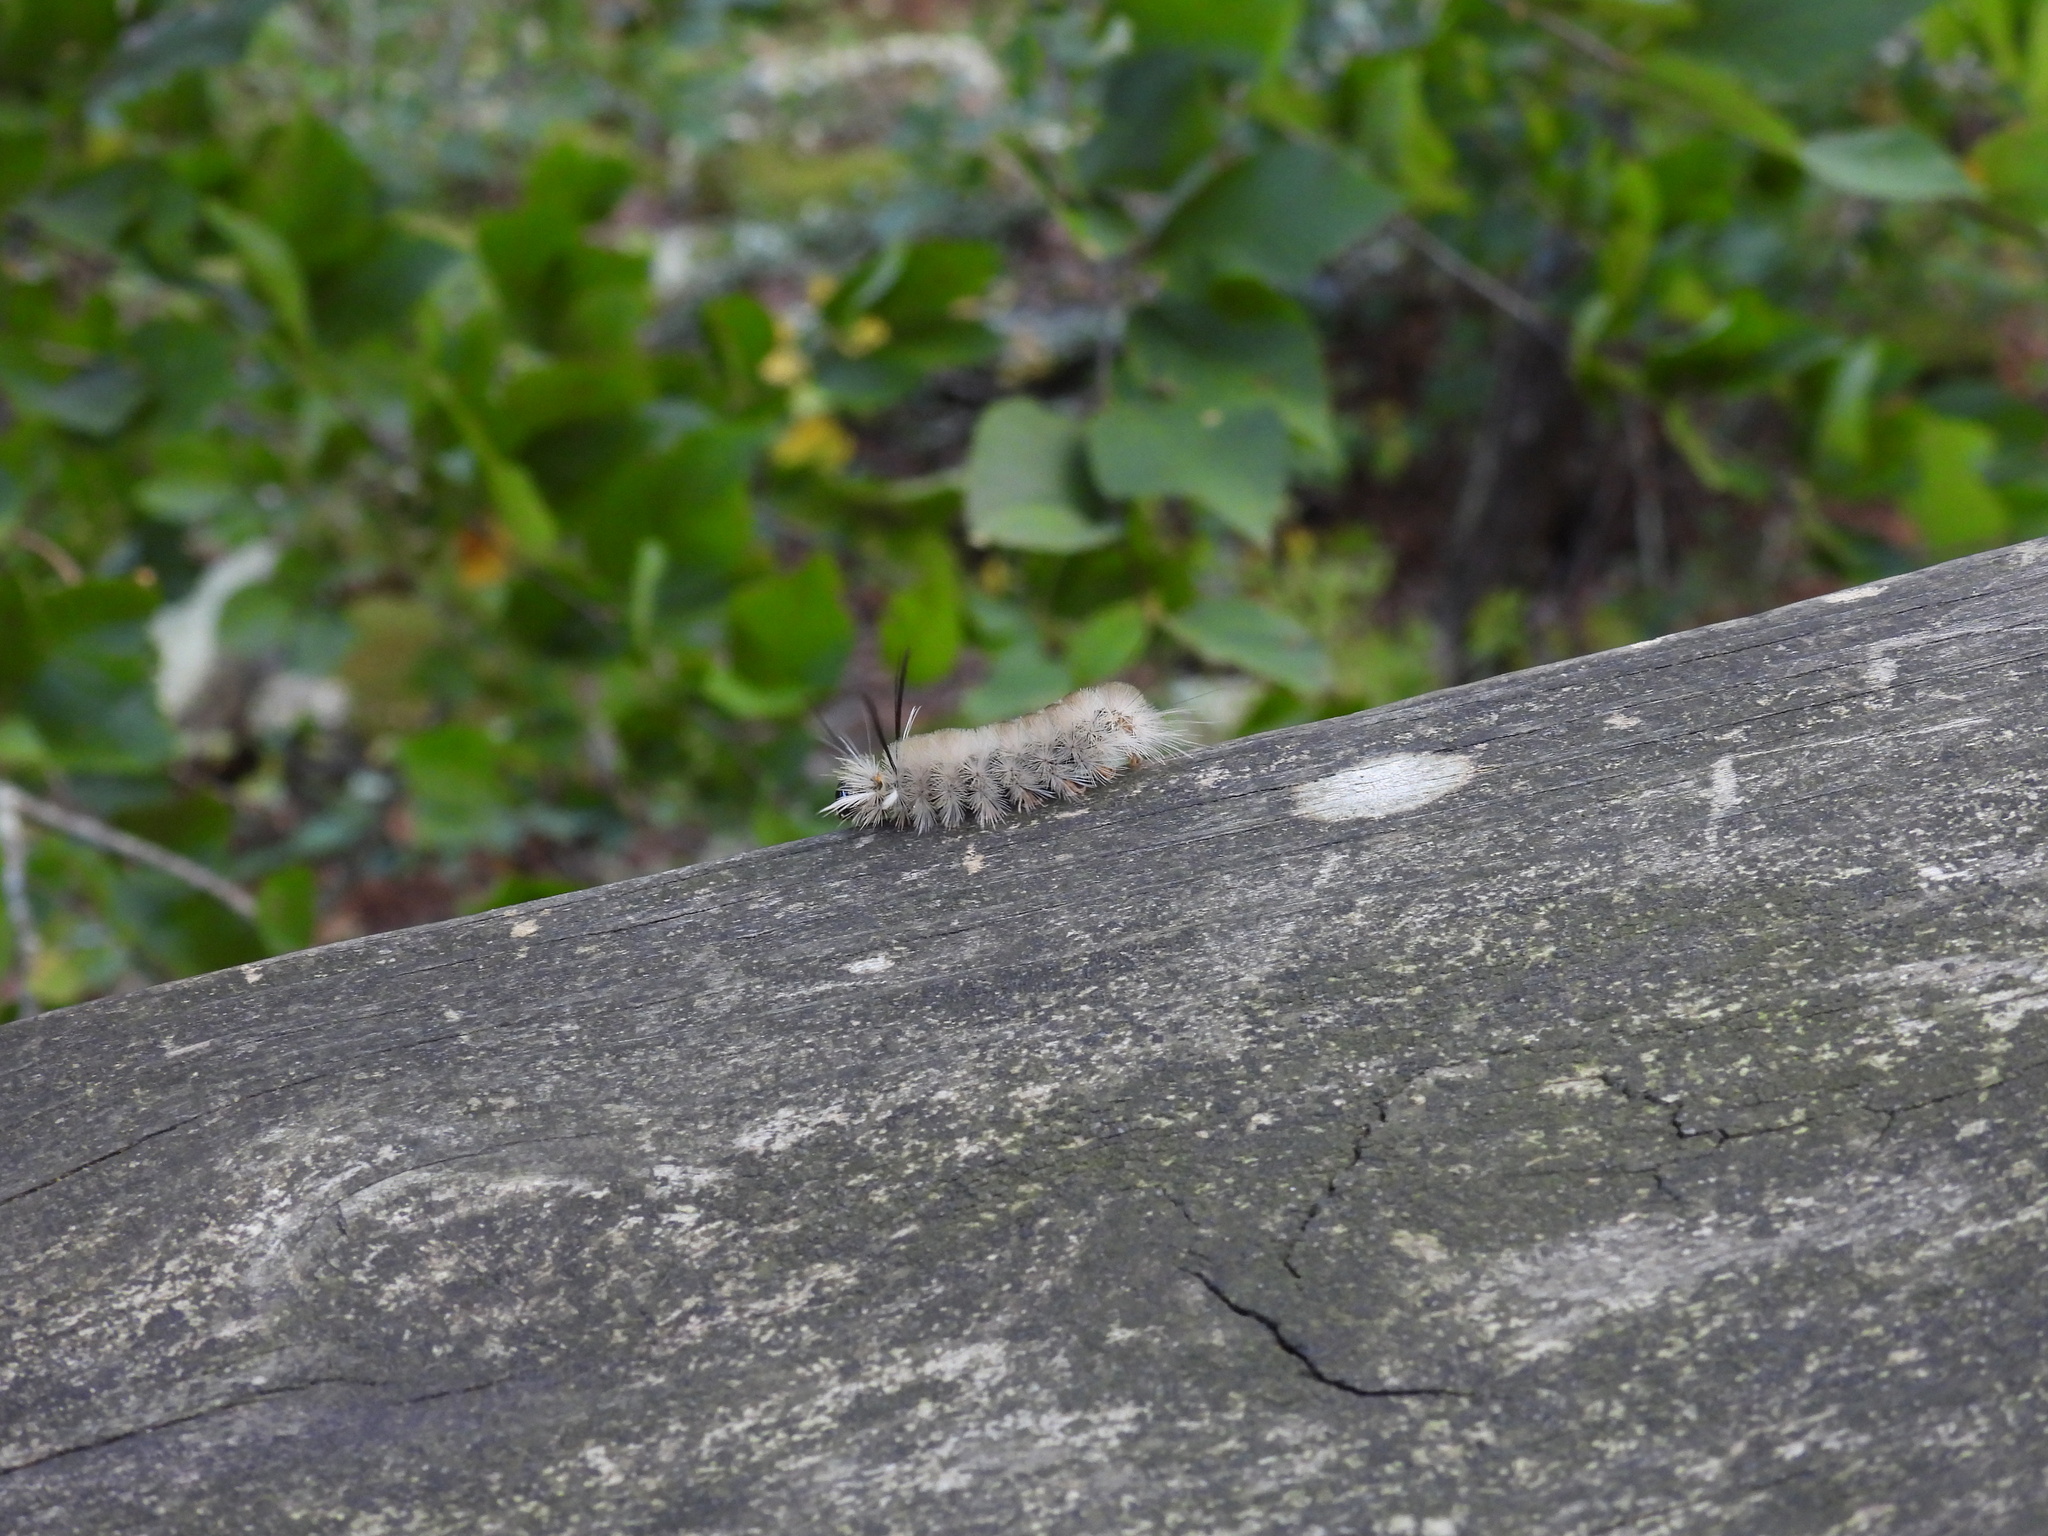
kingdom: Animalia
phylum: Arthropoda
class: Insecta
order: Lepidoptera
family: Erebidae
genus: Halysidota
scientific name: Halysidota tessellaris
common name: Banded tussock moth
